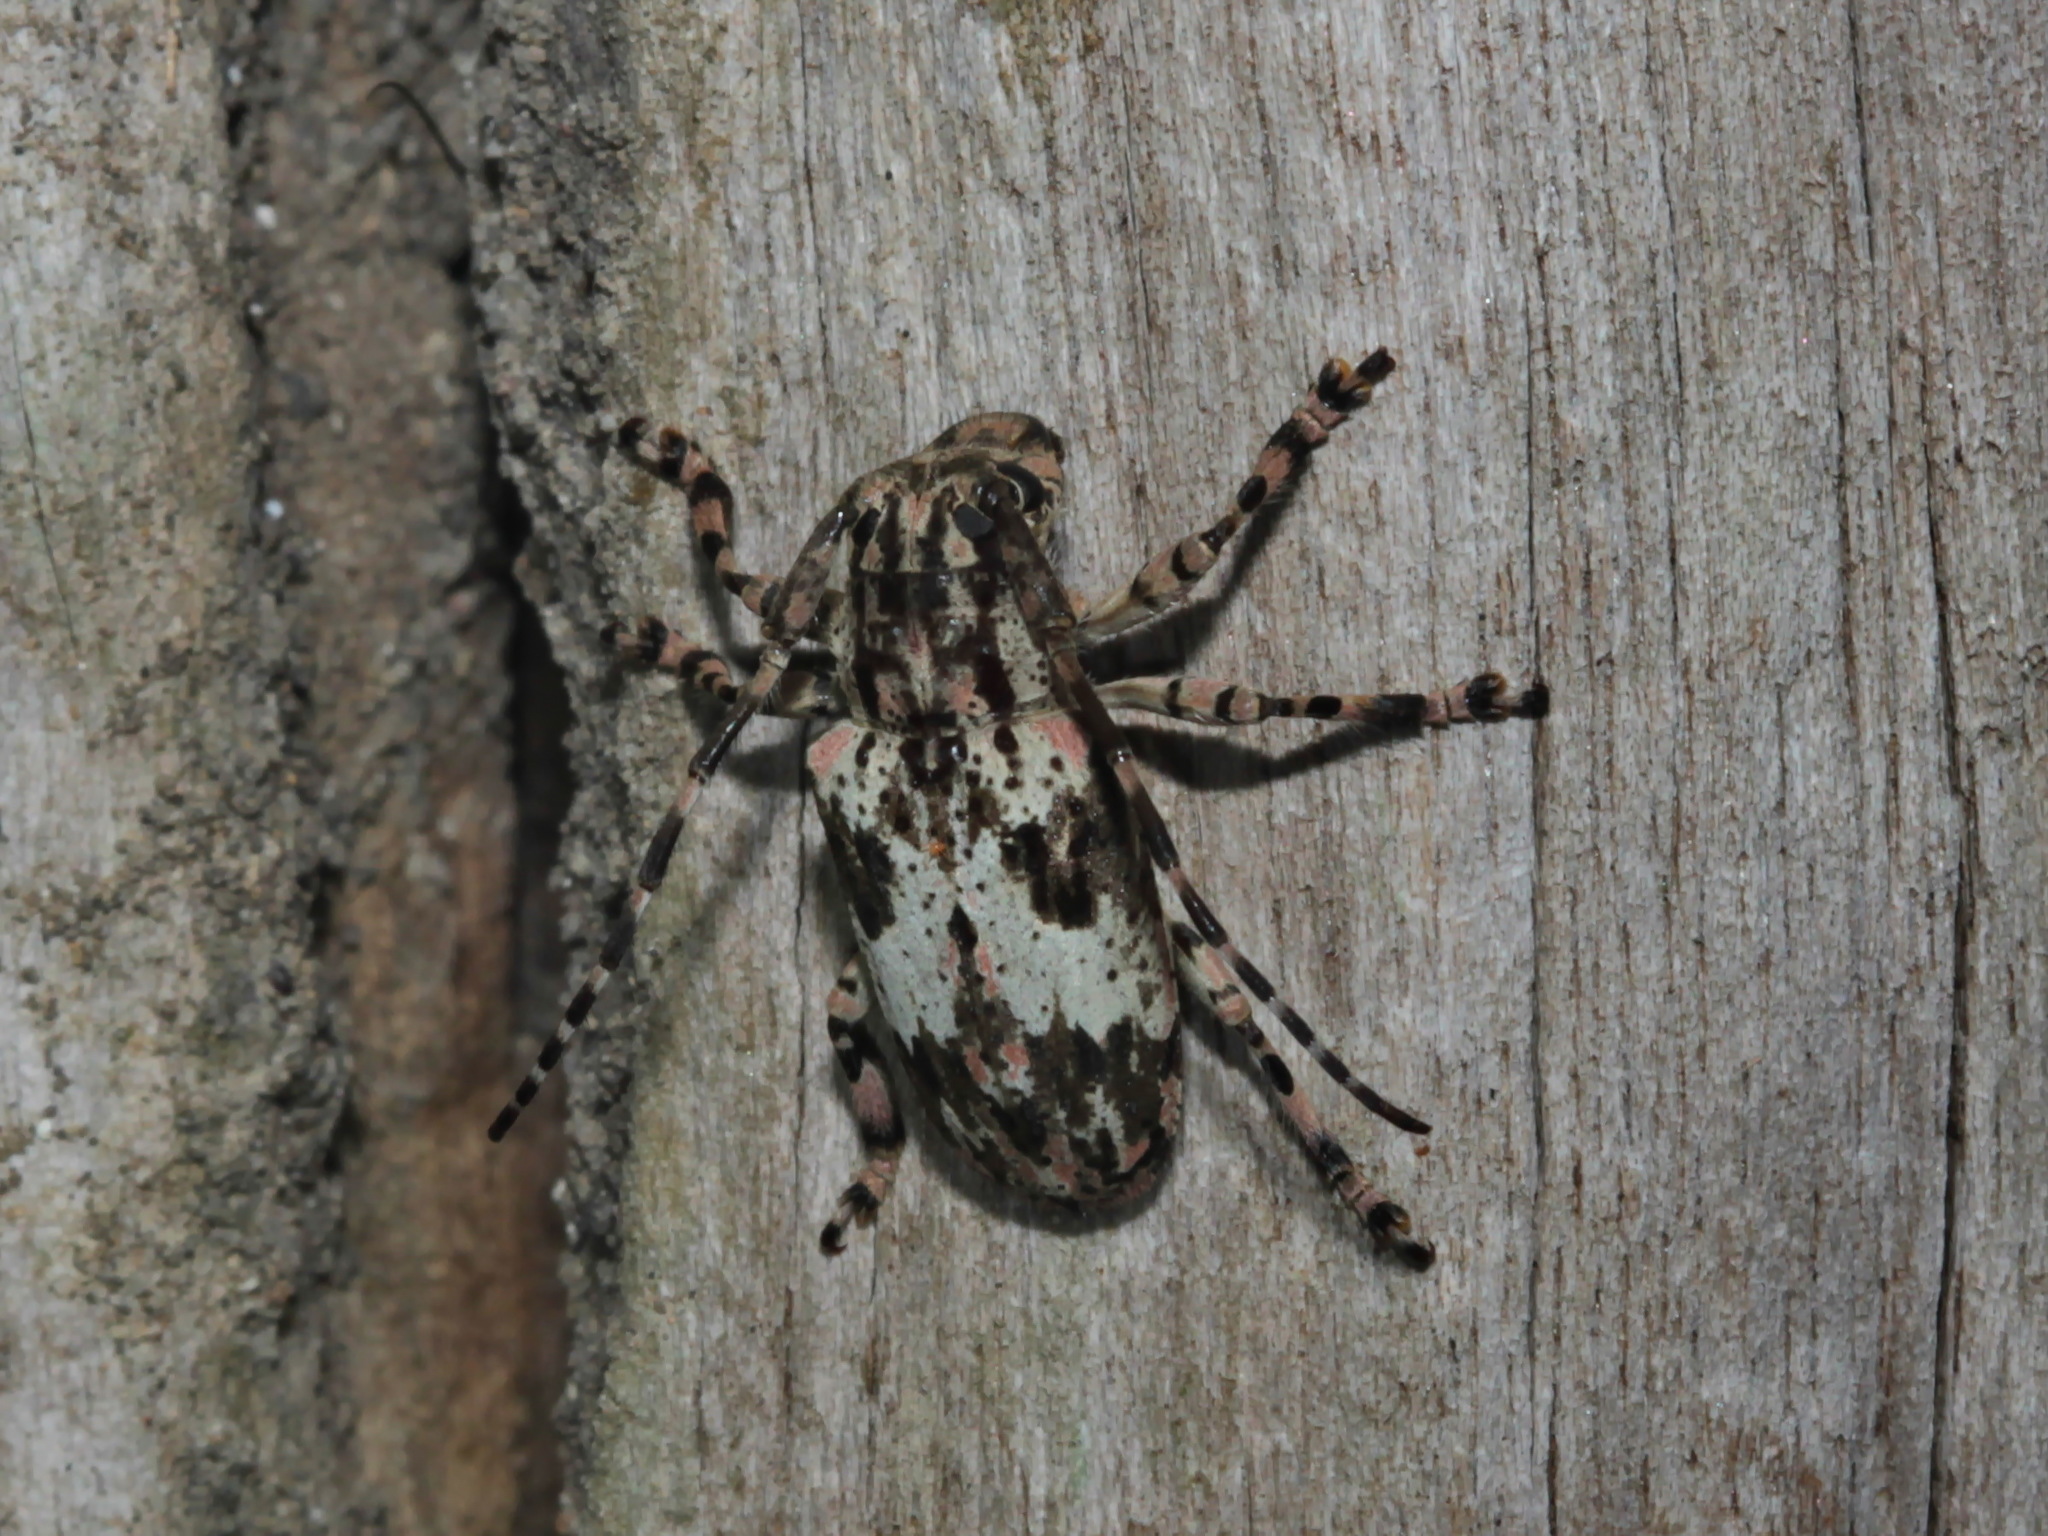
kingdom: Animalia
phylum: Arthropoda
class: Insecta
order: Coleoptera
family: Cerambycidae
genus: Coptops
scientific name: Coptops annulipes
